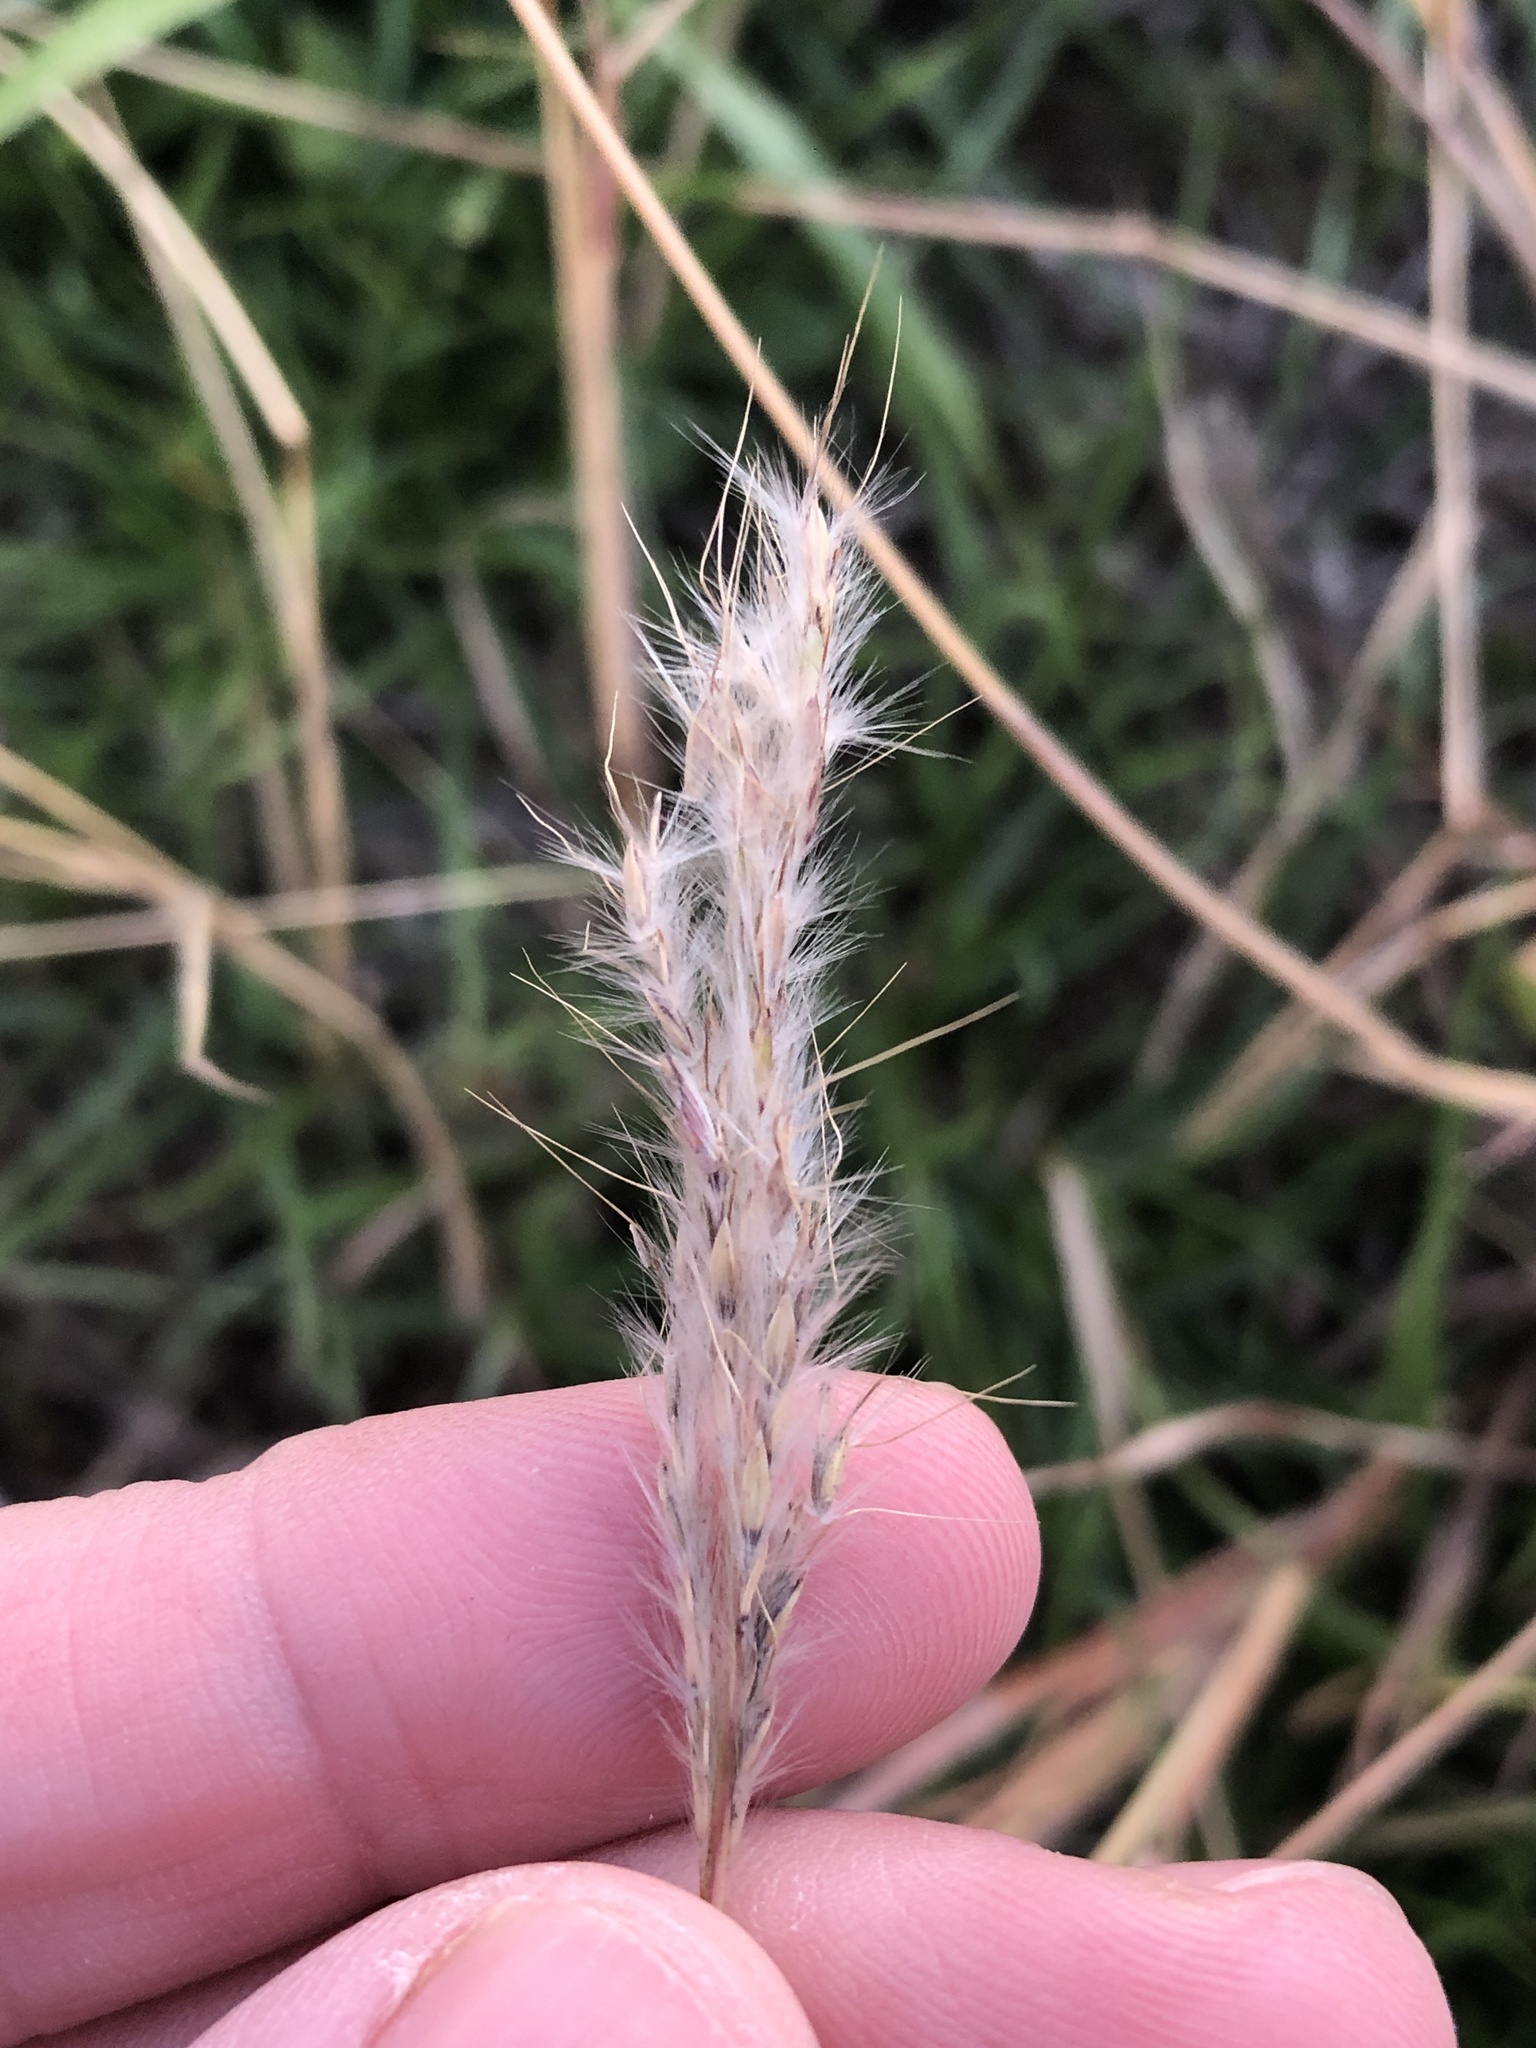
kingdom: Plantae
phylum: Tracheophyta
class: Liliopsida
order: Poales
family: Poaceae
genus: Bothriochloa
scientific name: Bothriochloa torreyana
